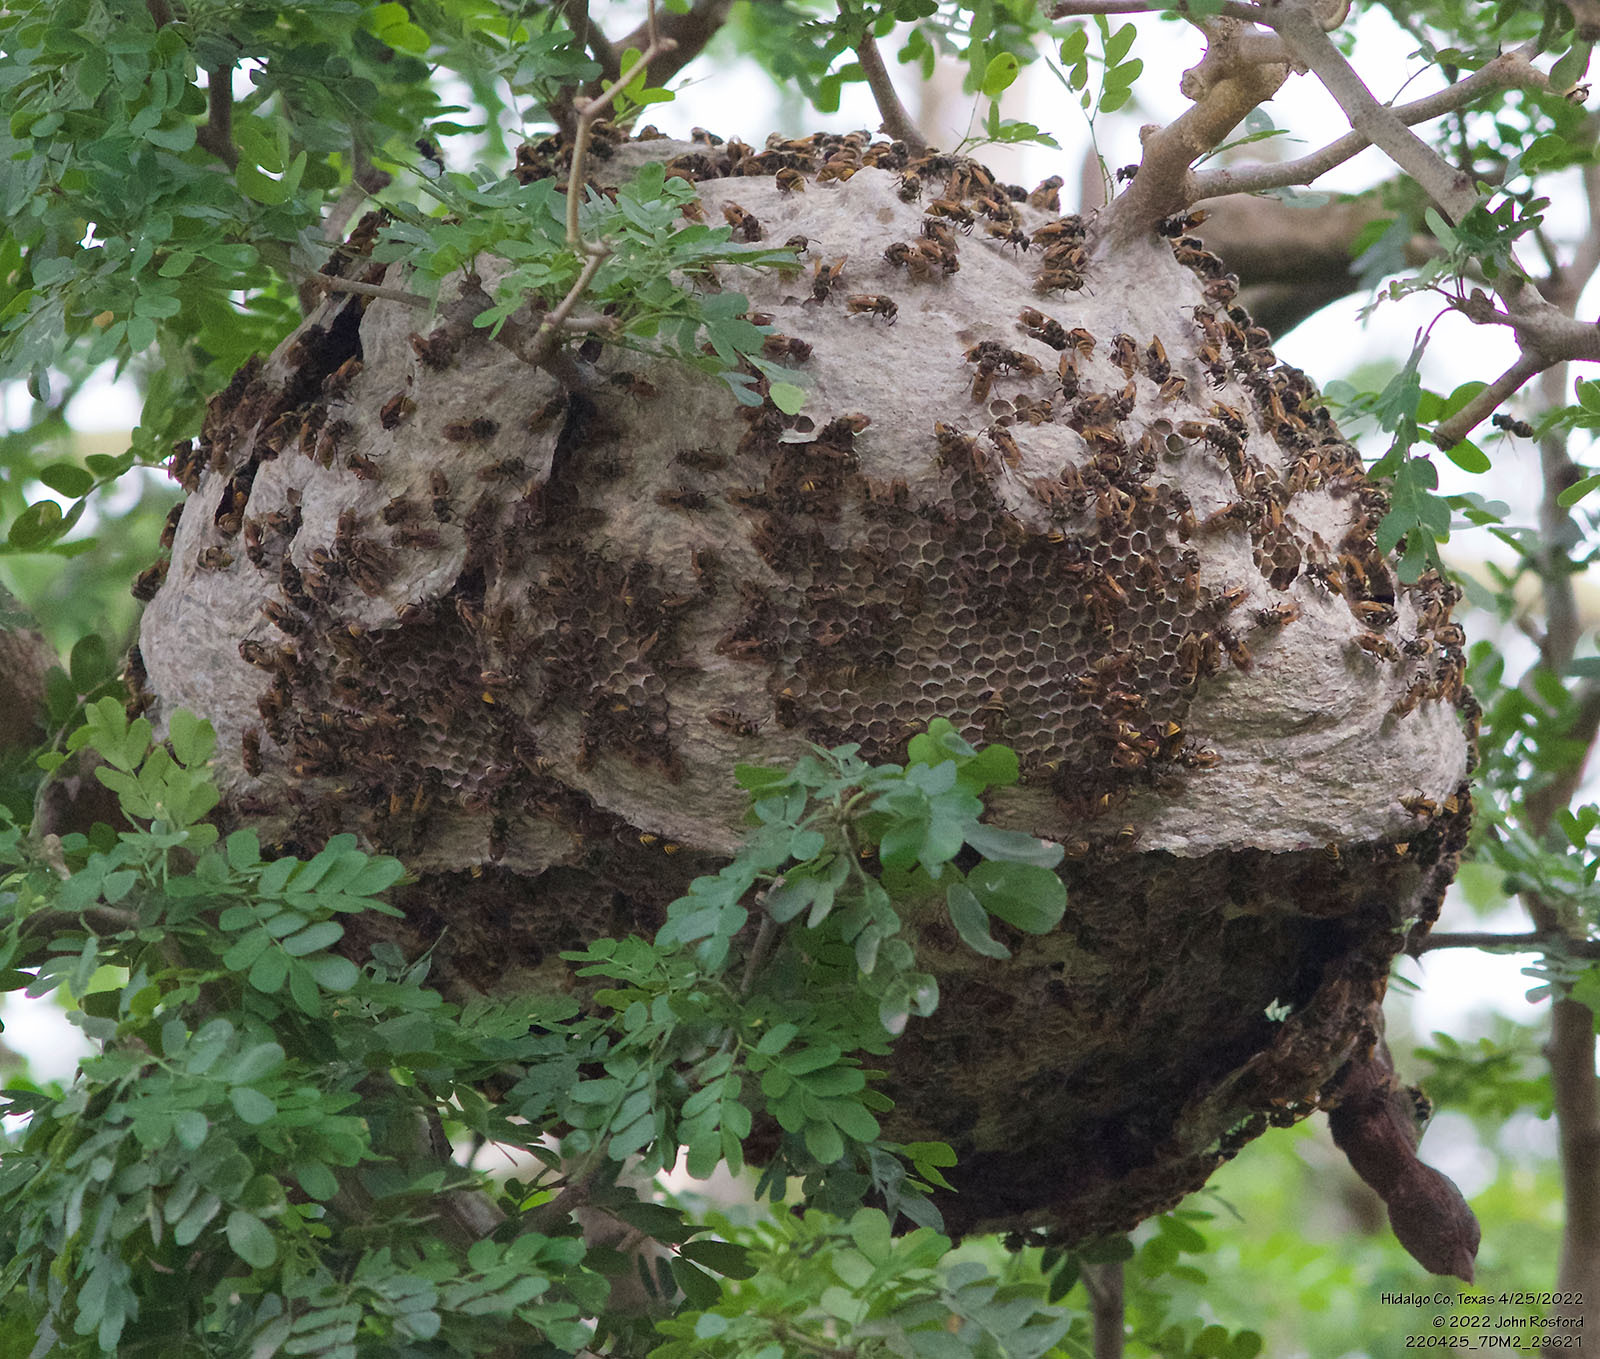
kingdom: Animalia
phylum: Arthropoda
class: Insecta
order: Hymenoptera
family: Vespidae
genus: Brachygastra
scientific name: Brachygastra mellifica
